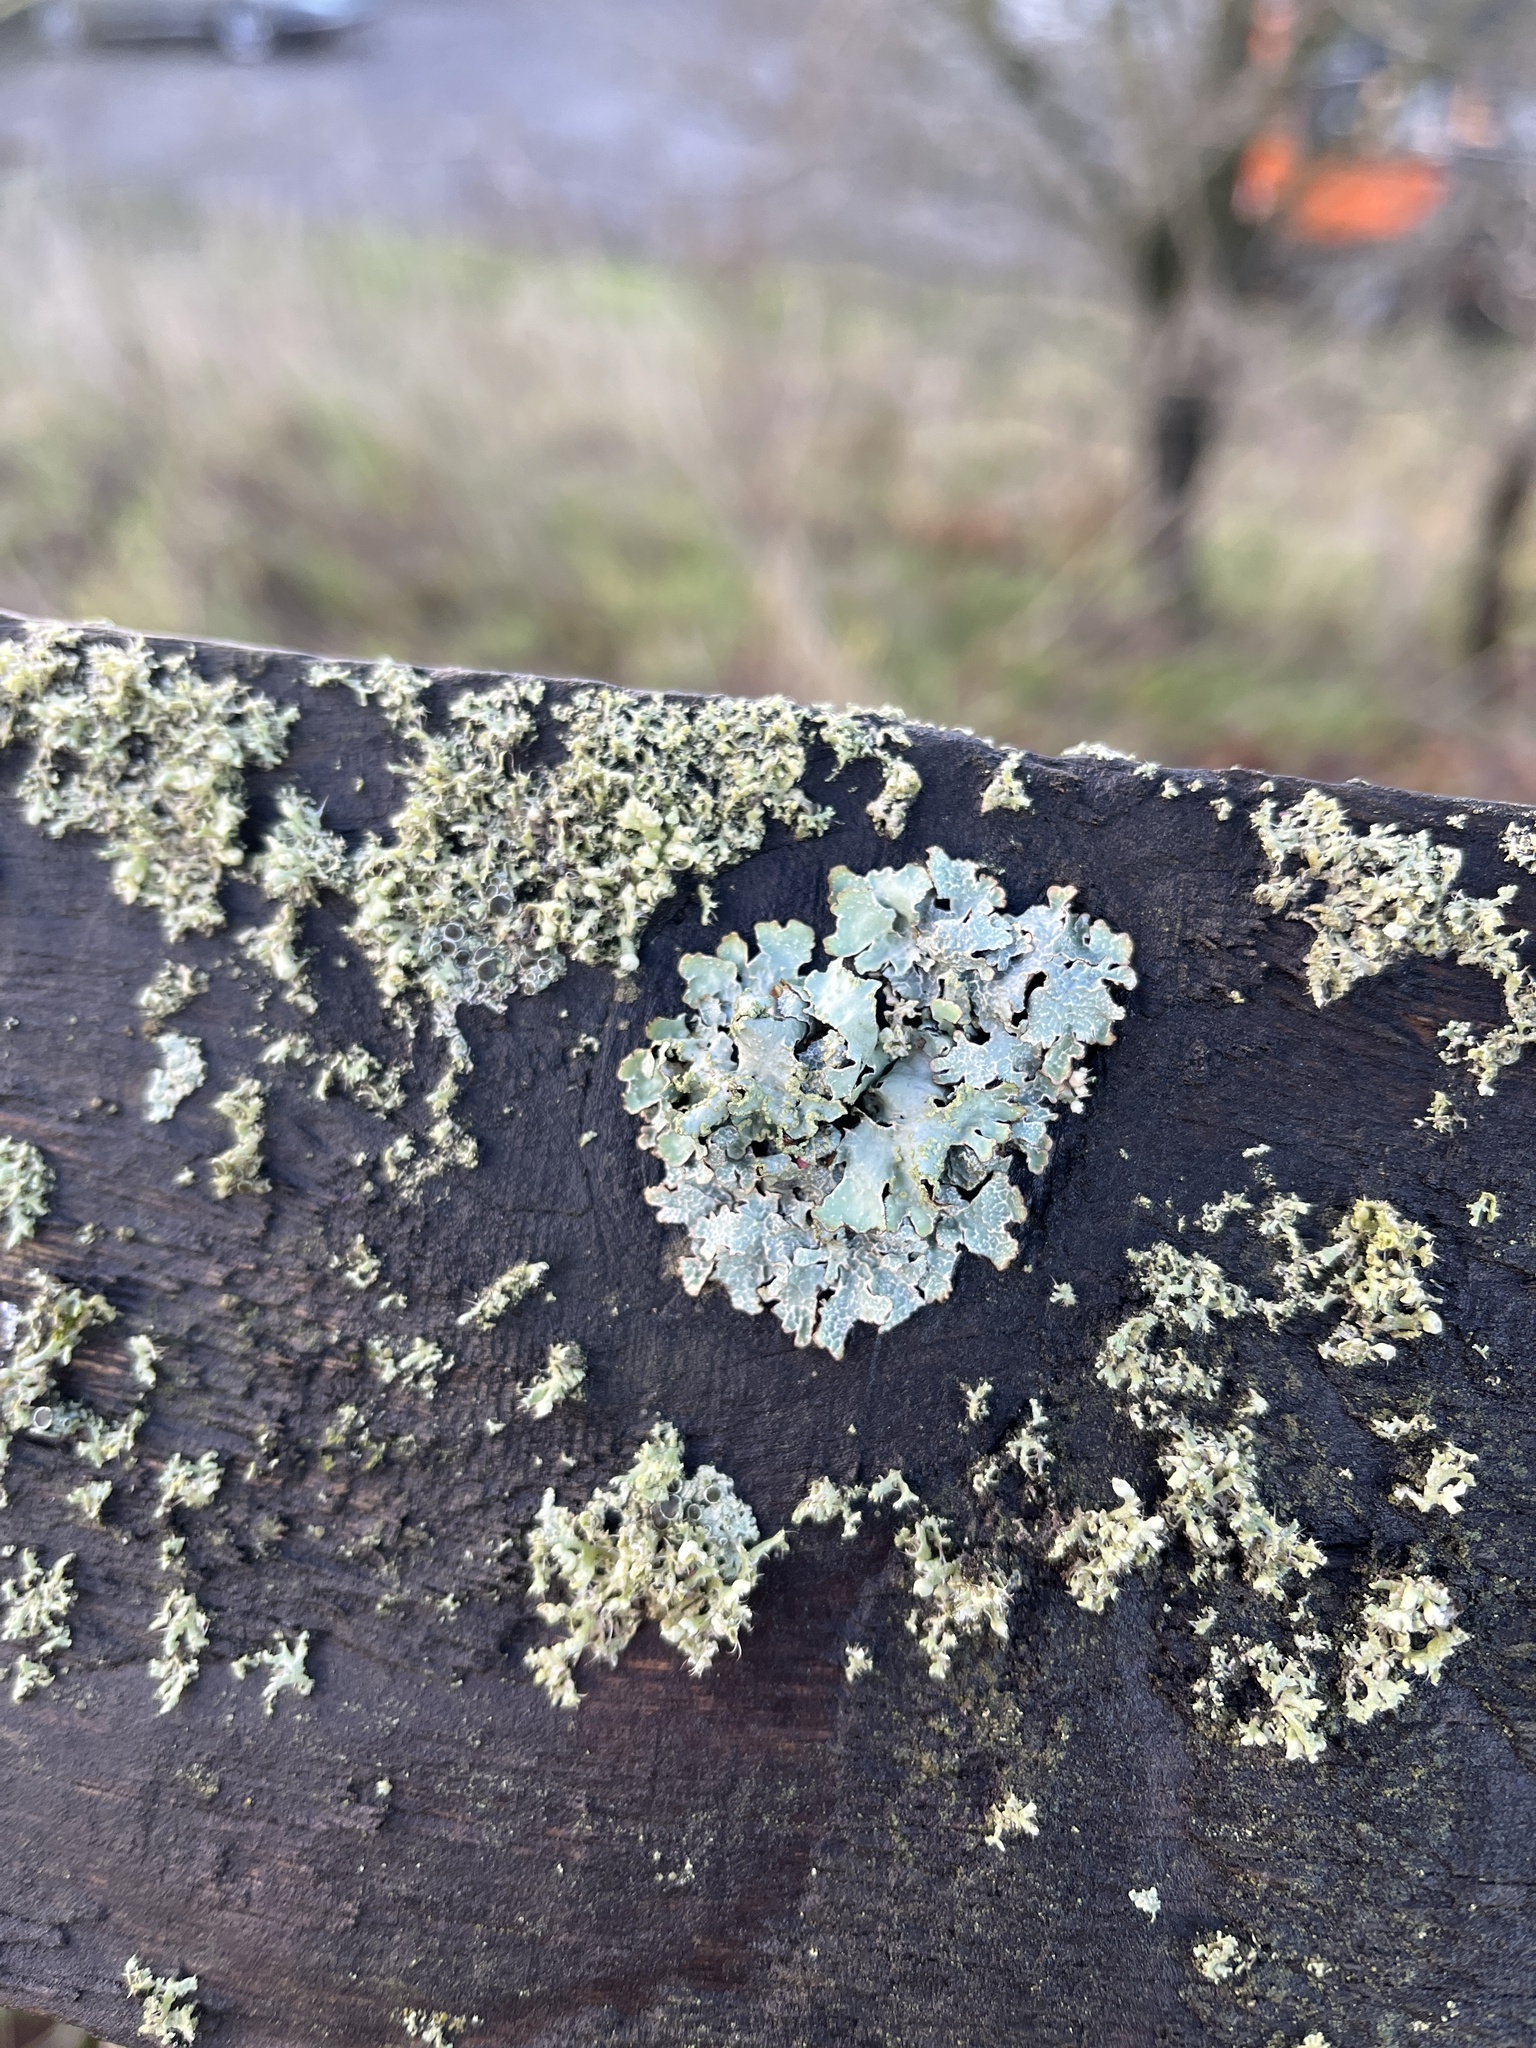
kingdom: Fungi
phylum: Ascomycota
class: Lecanoromycetes
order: Lecanorales
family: Parmeliaceae
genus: Parmelia
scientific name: Parmelia sulcata
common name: Netted shield lichen
